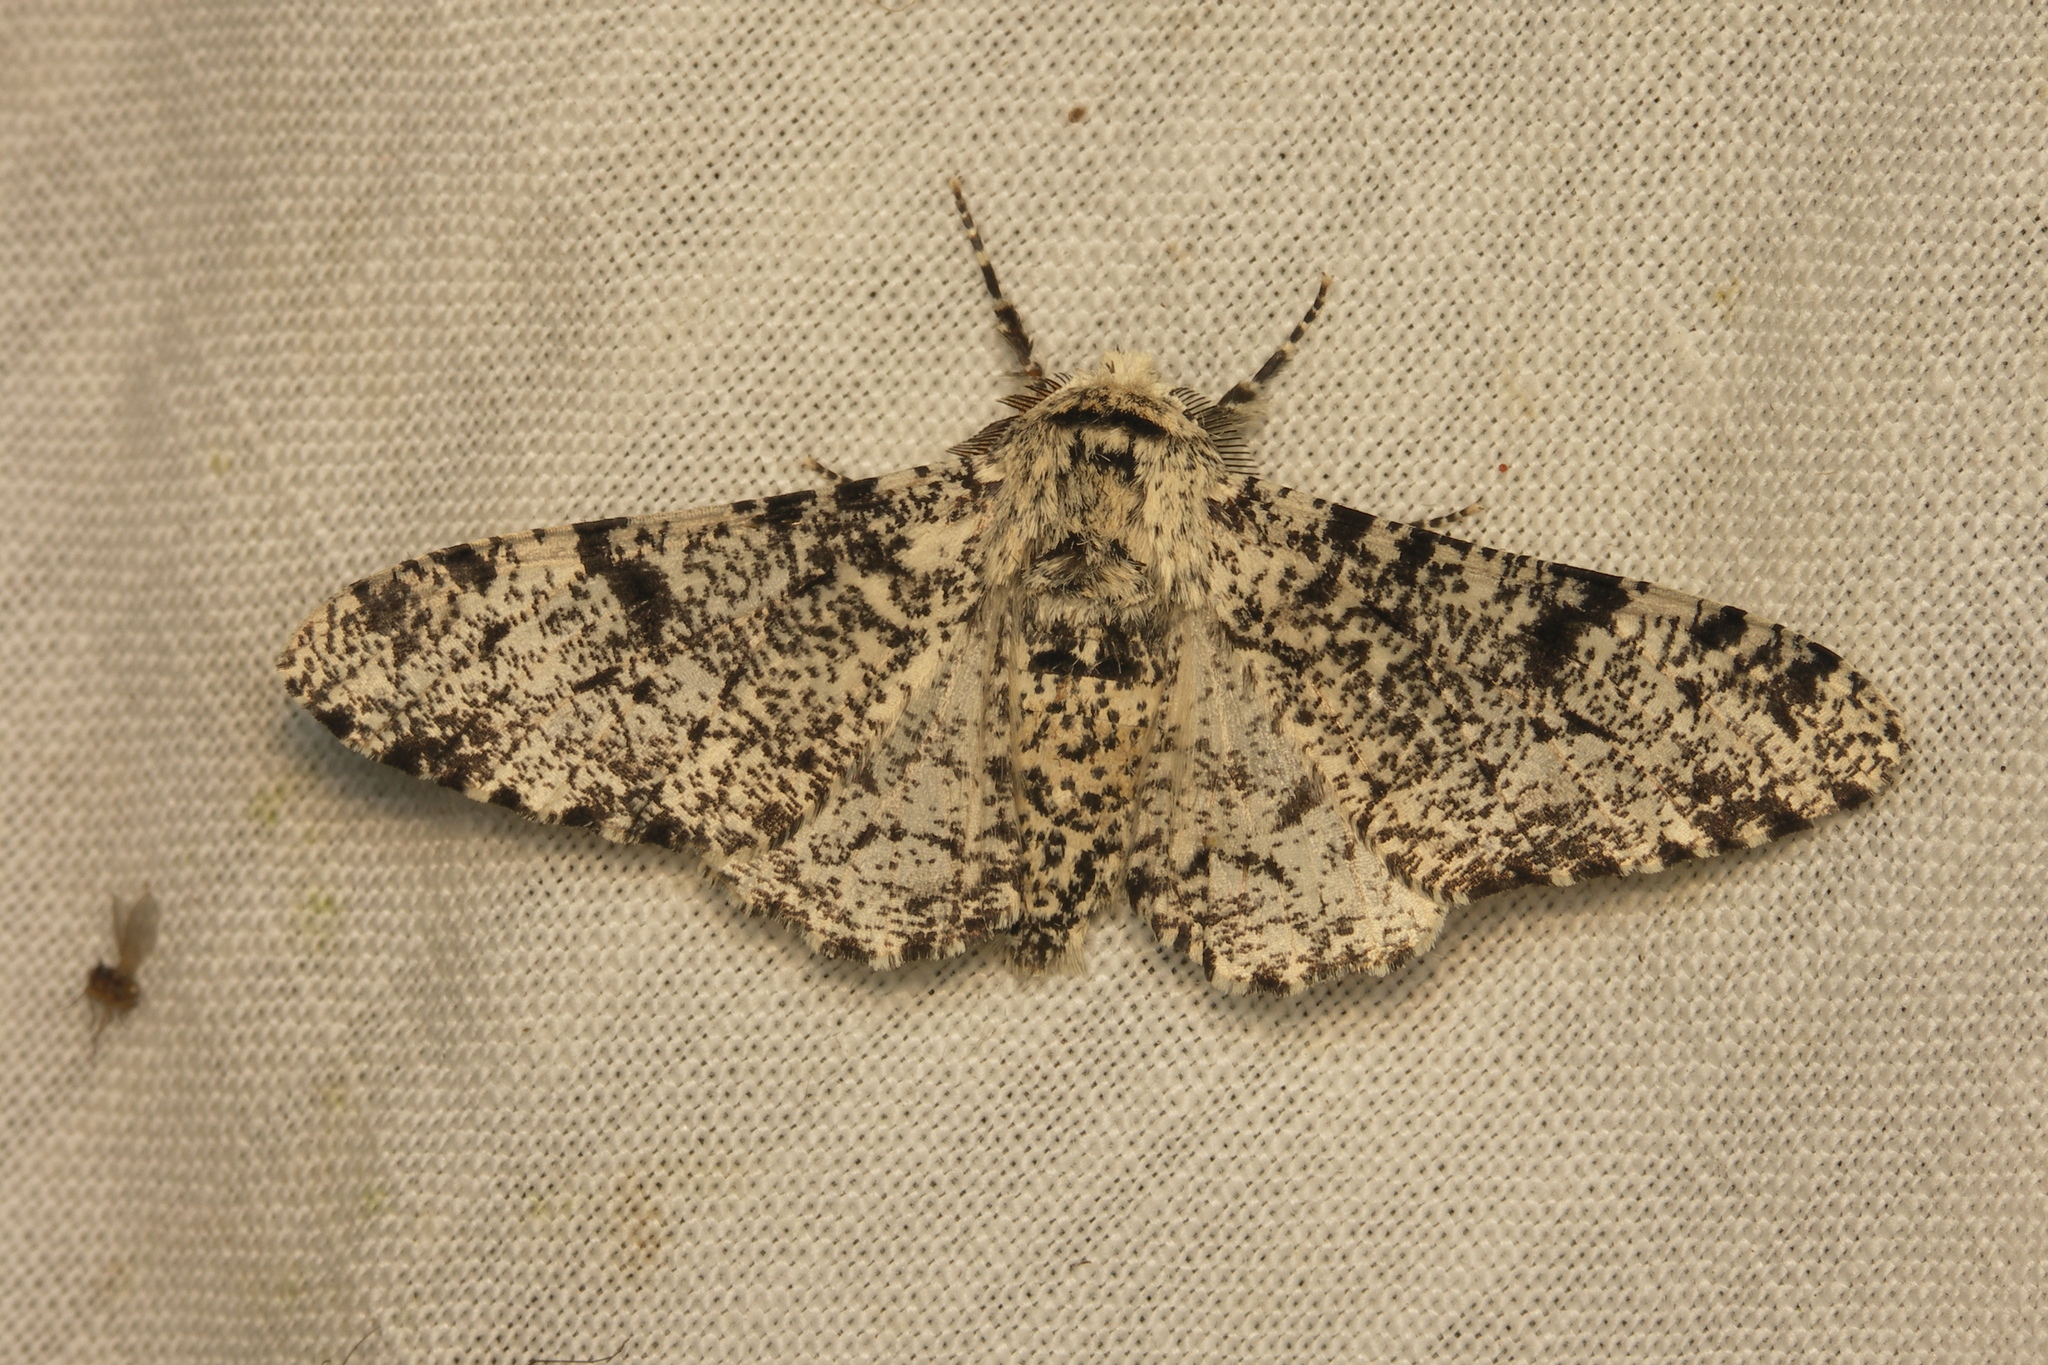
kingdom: Animalia
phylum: Arthropoda
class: Insecta
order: Lepidoptera
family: Geometridae
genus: Biston
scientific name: Biston betularia
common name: Peppered moth
